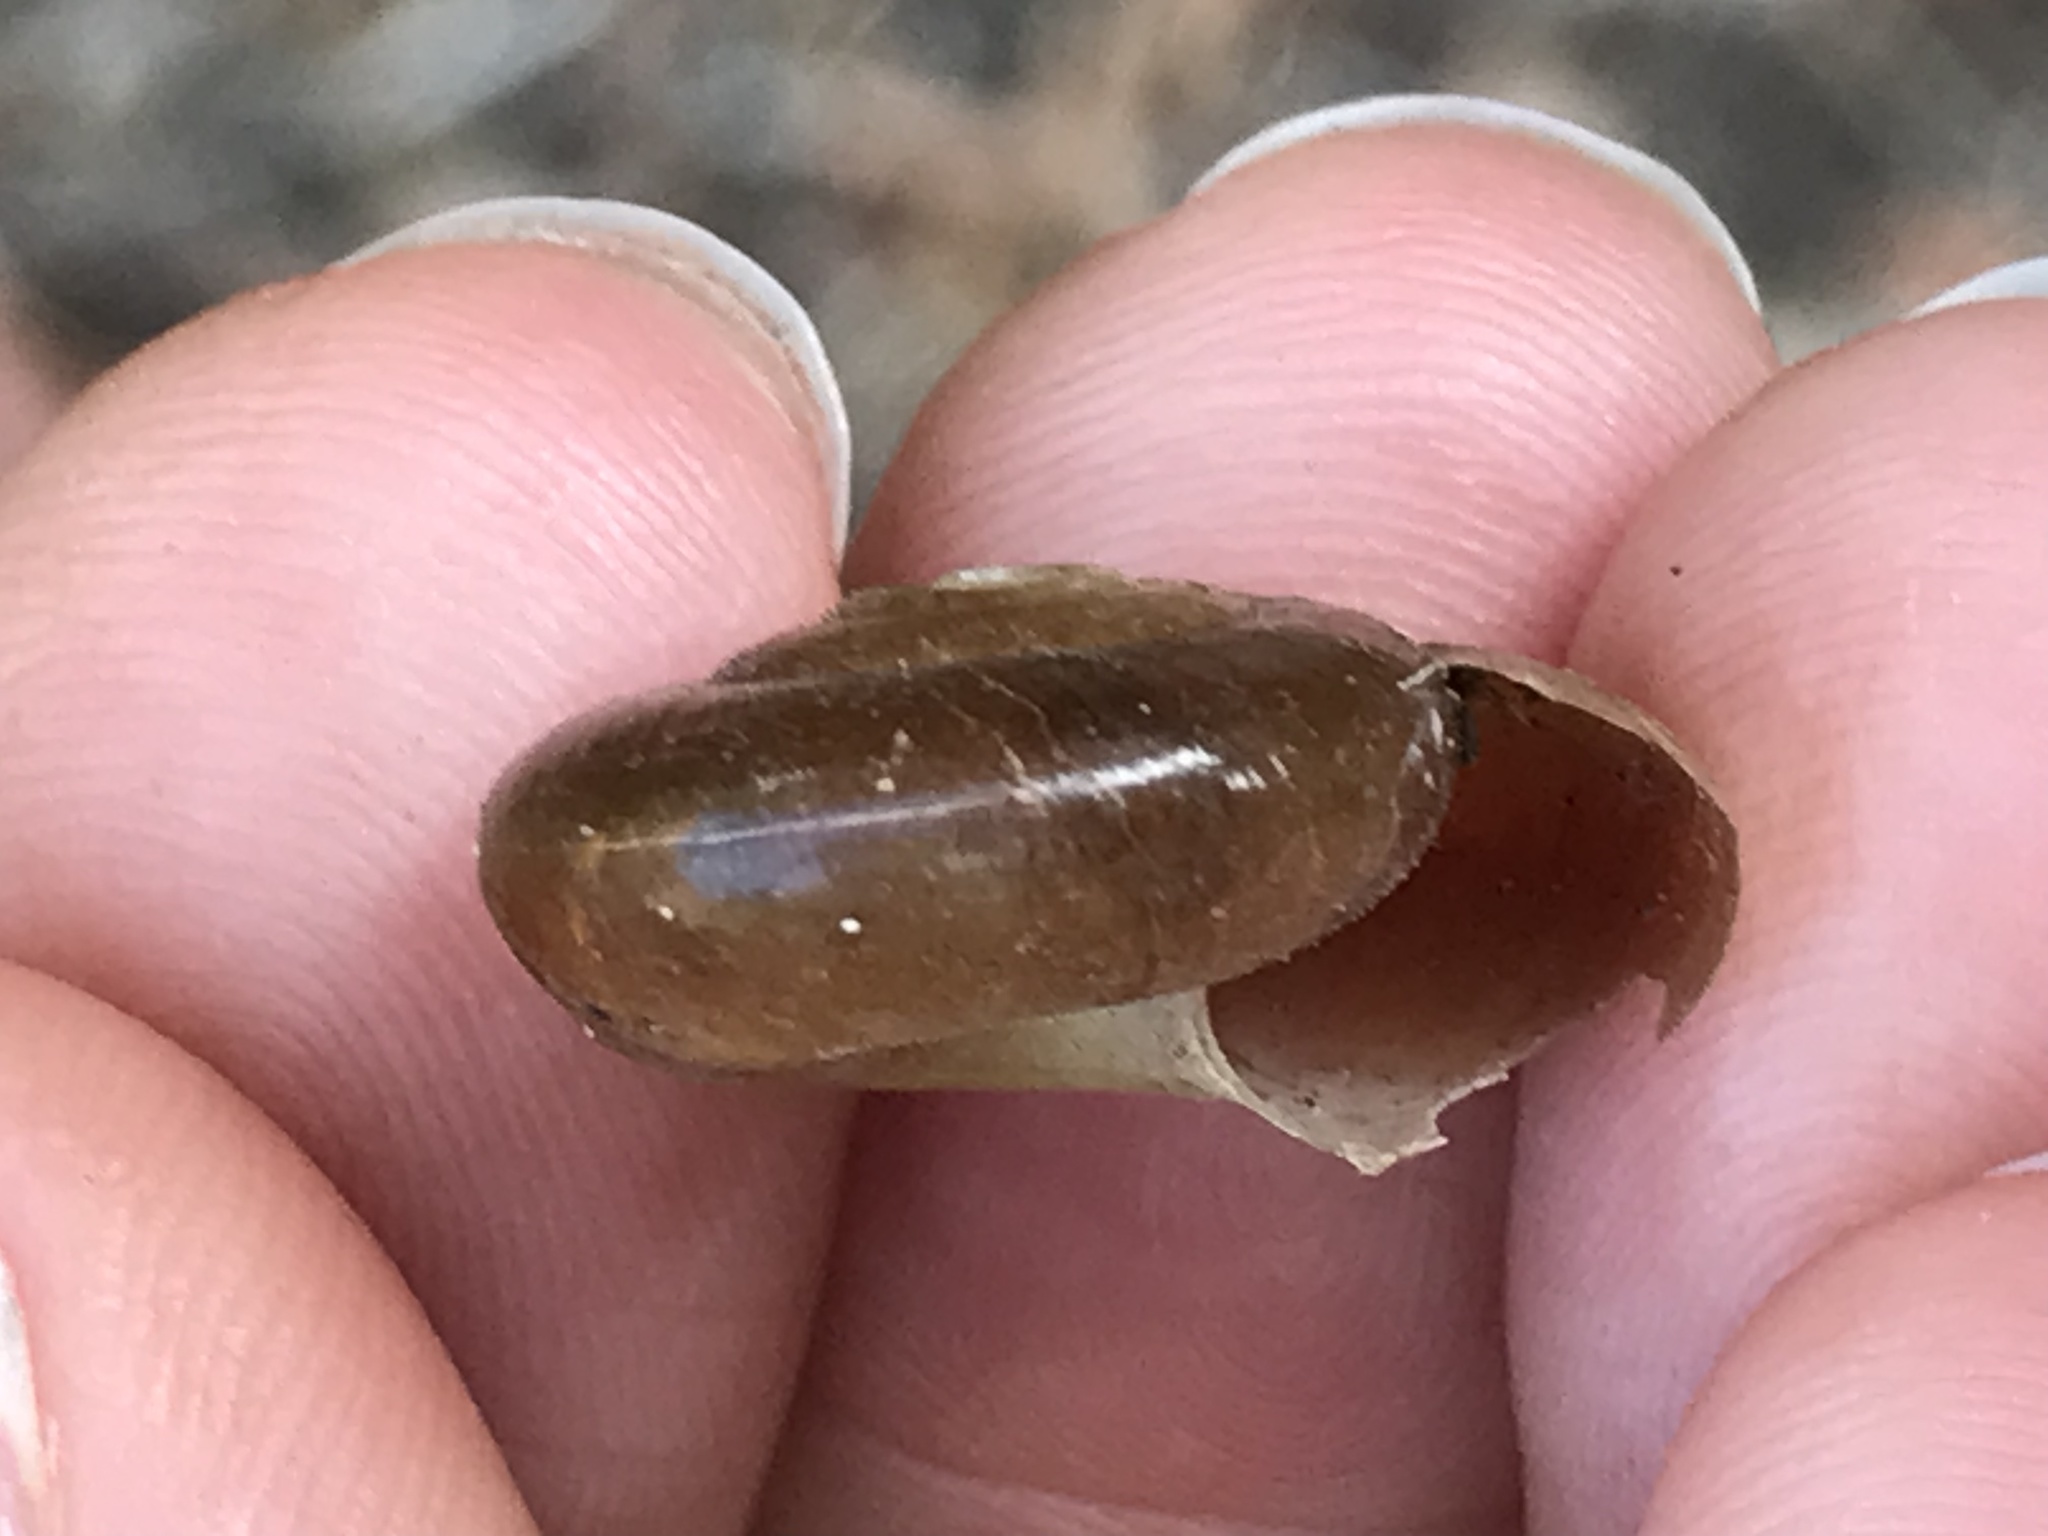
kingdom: Animalia
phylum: Mollusca
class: Gastropoda
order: Stylommatophora
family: Megomphicidae
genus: Glyptostoma
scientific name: Glyptostoma gabrielense
